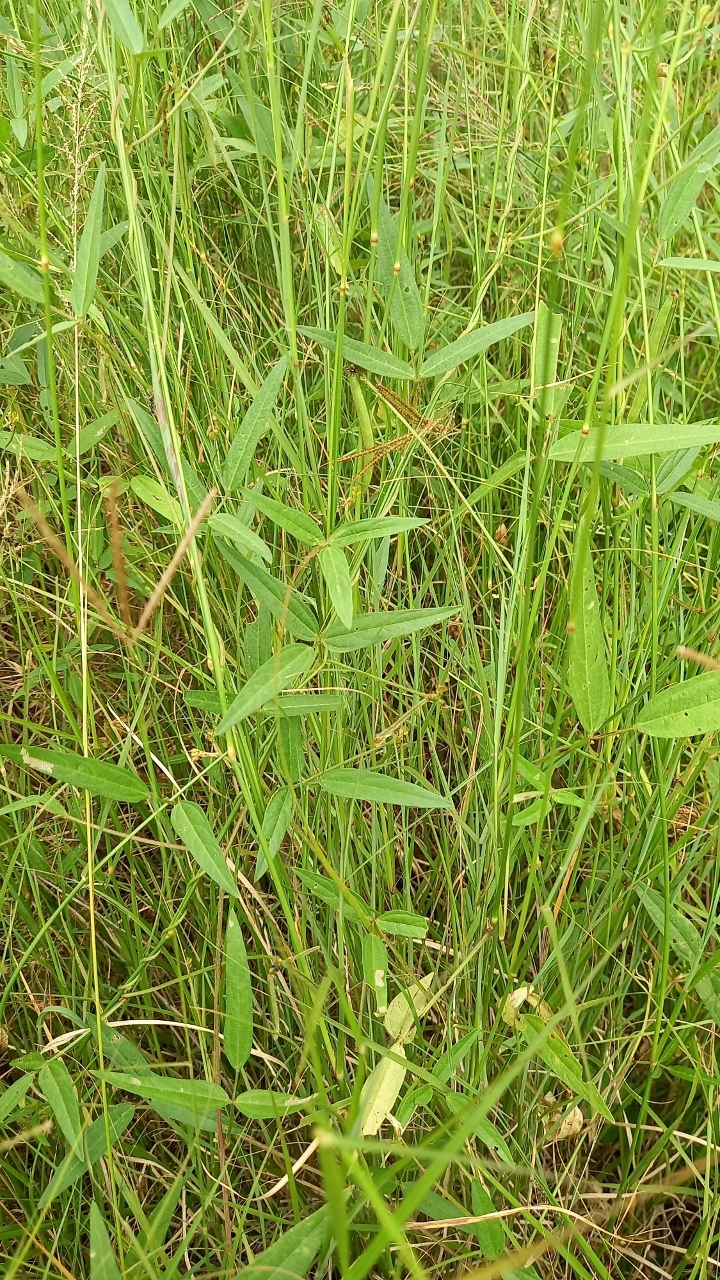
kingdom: Plantae
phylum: Tracheophyta
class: Magnoliopsida
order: Fabales
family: Fabaceae
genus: Vigna
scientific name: Vigna oblongifolia
